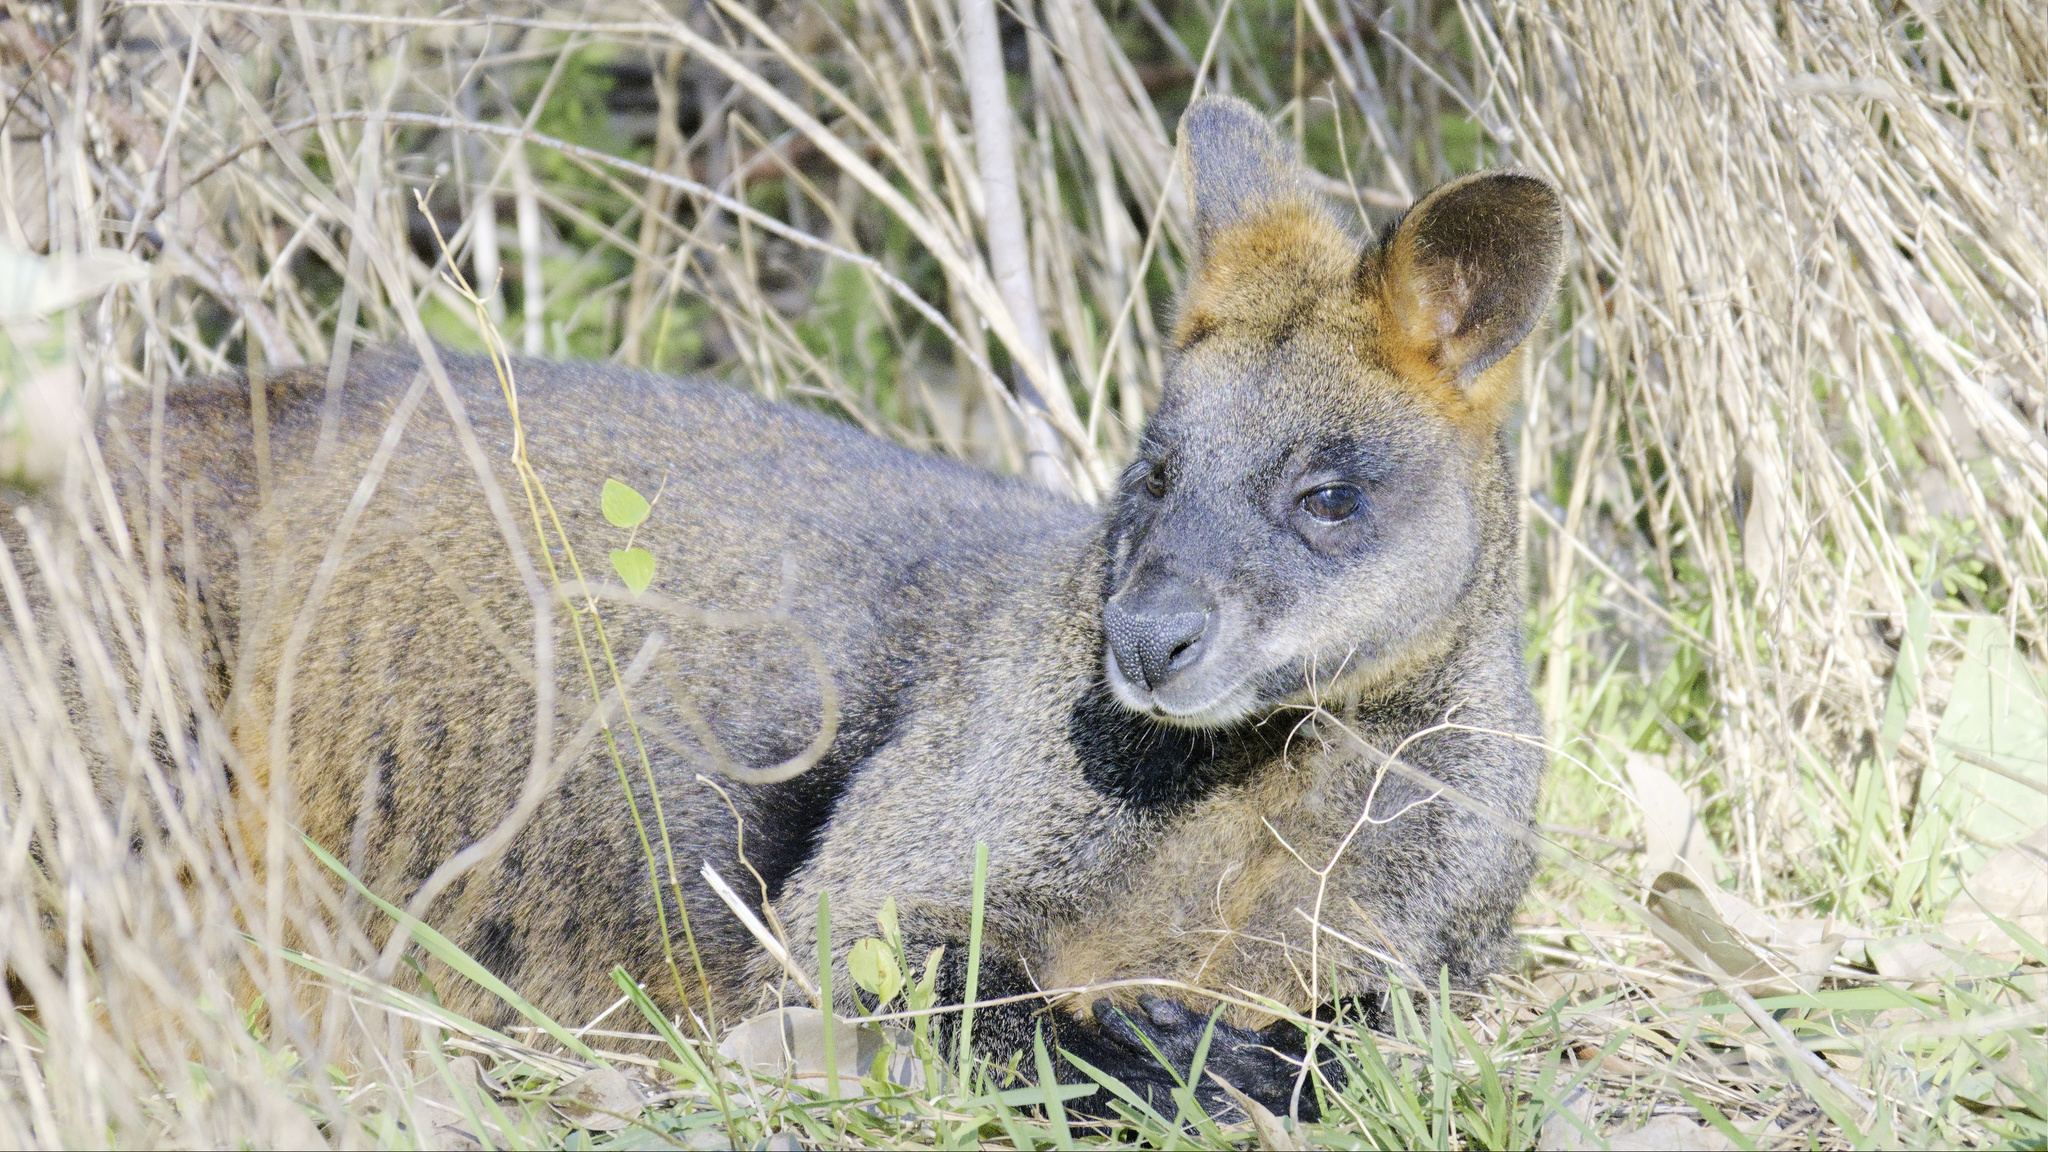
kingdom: Animalia
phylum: Chordata
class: Mammalia
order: Diprotodontia
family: Macropodidae
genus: Wallabia
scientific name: Wallabia bicolor
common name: Swamp wallaby
